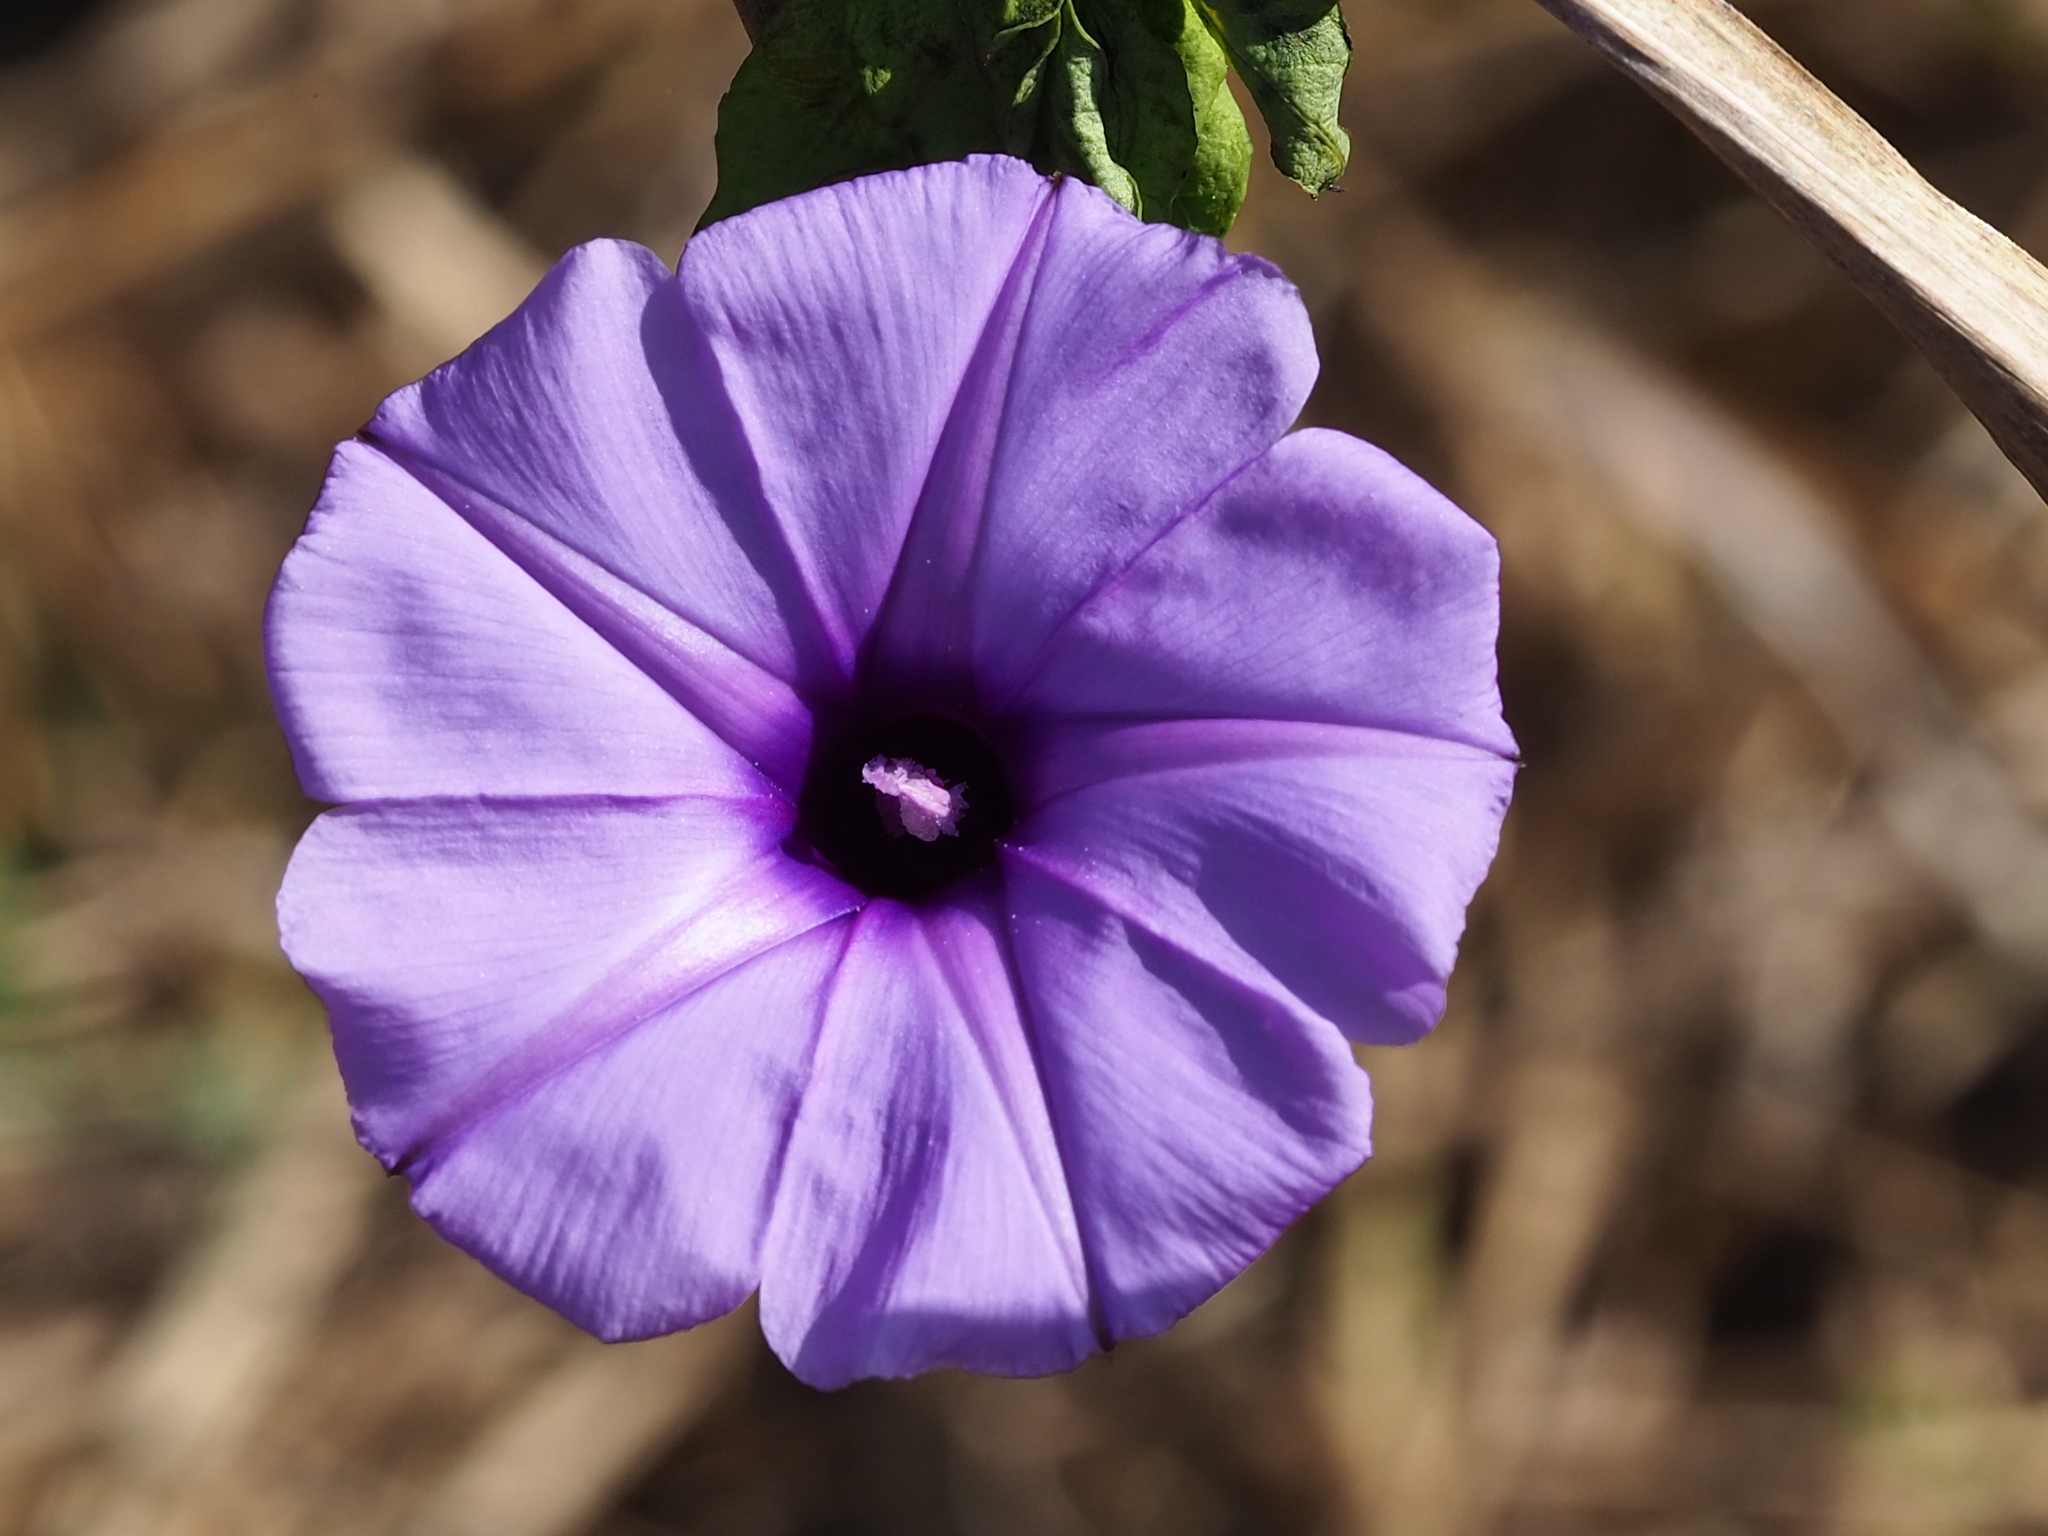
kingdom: Plantae
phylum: Tracheophyta
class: Magnoliopsida
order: Solanales
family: Convolvulaceae
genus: Ipomoea
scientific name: Ipomoea cairica
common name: Mile a minute vine
